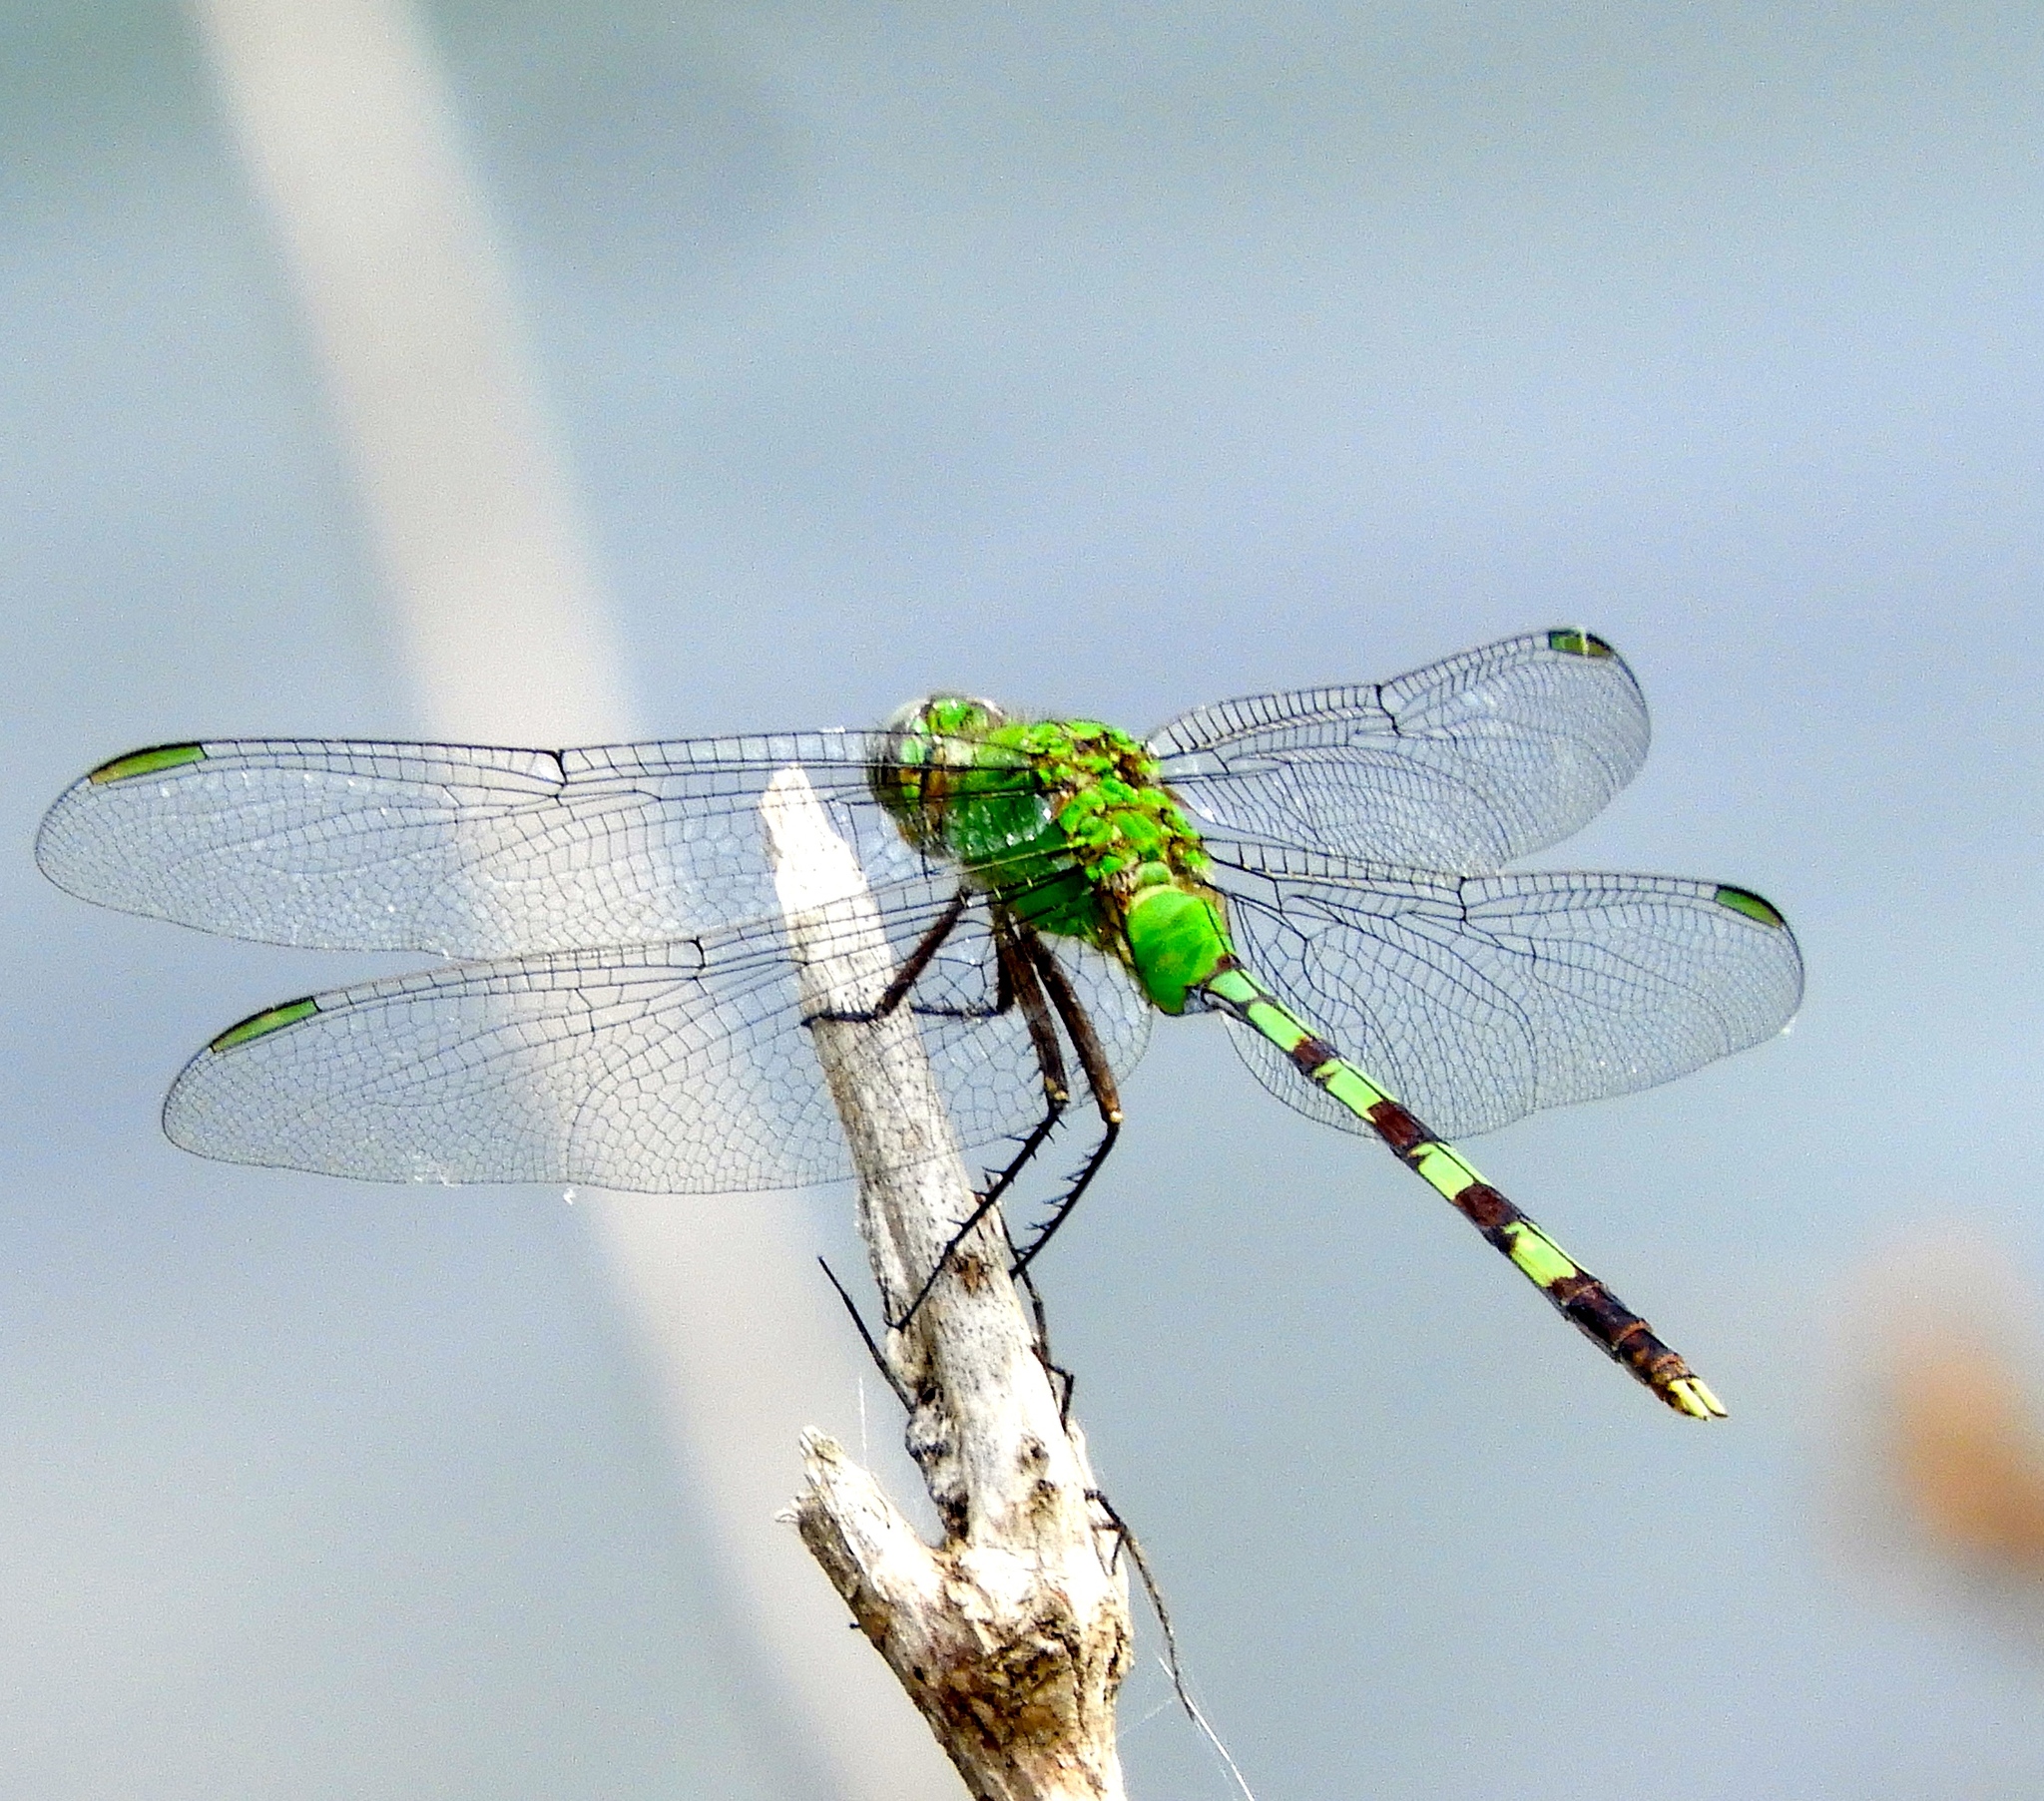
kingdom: Animalia
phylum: Arthropoda
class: Insecta
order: Odonata
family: Libellulidae
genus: Erythemis
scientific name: Erythemis vesiculosa
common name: Great pondhawk
